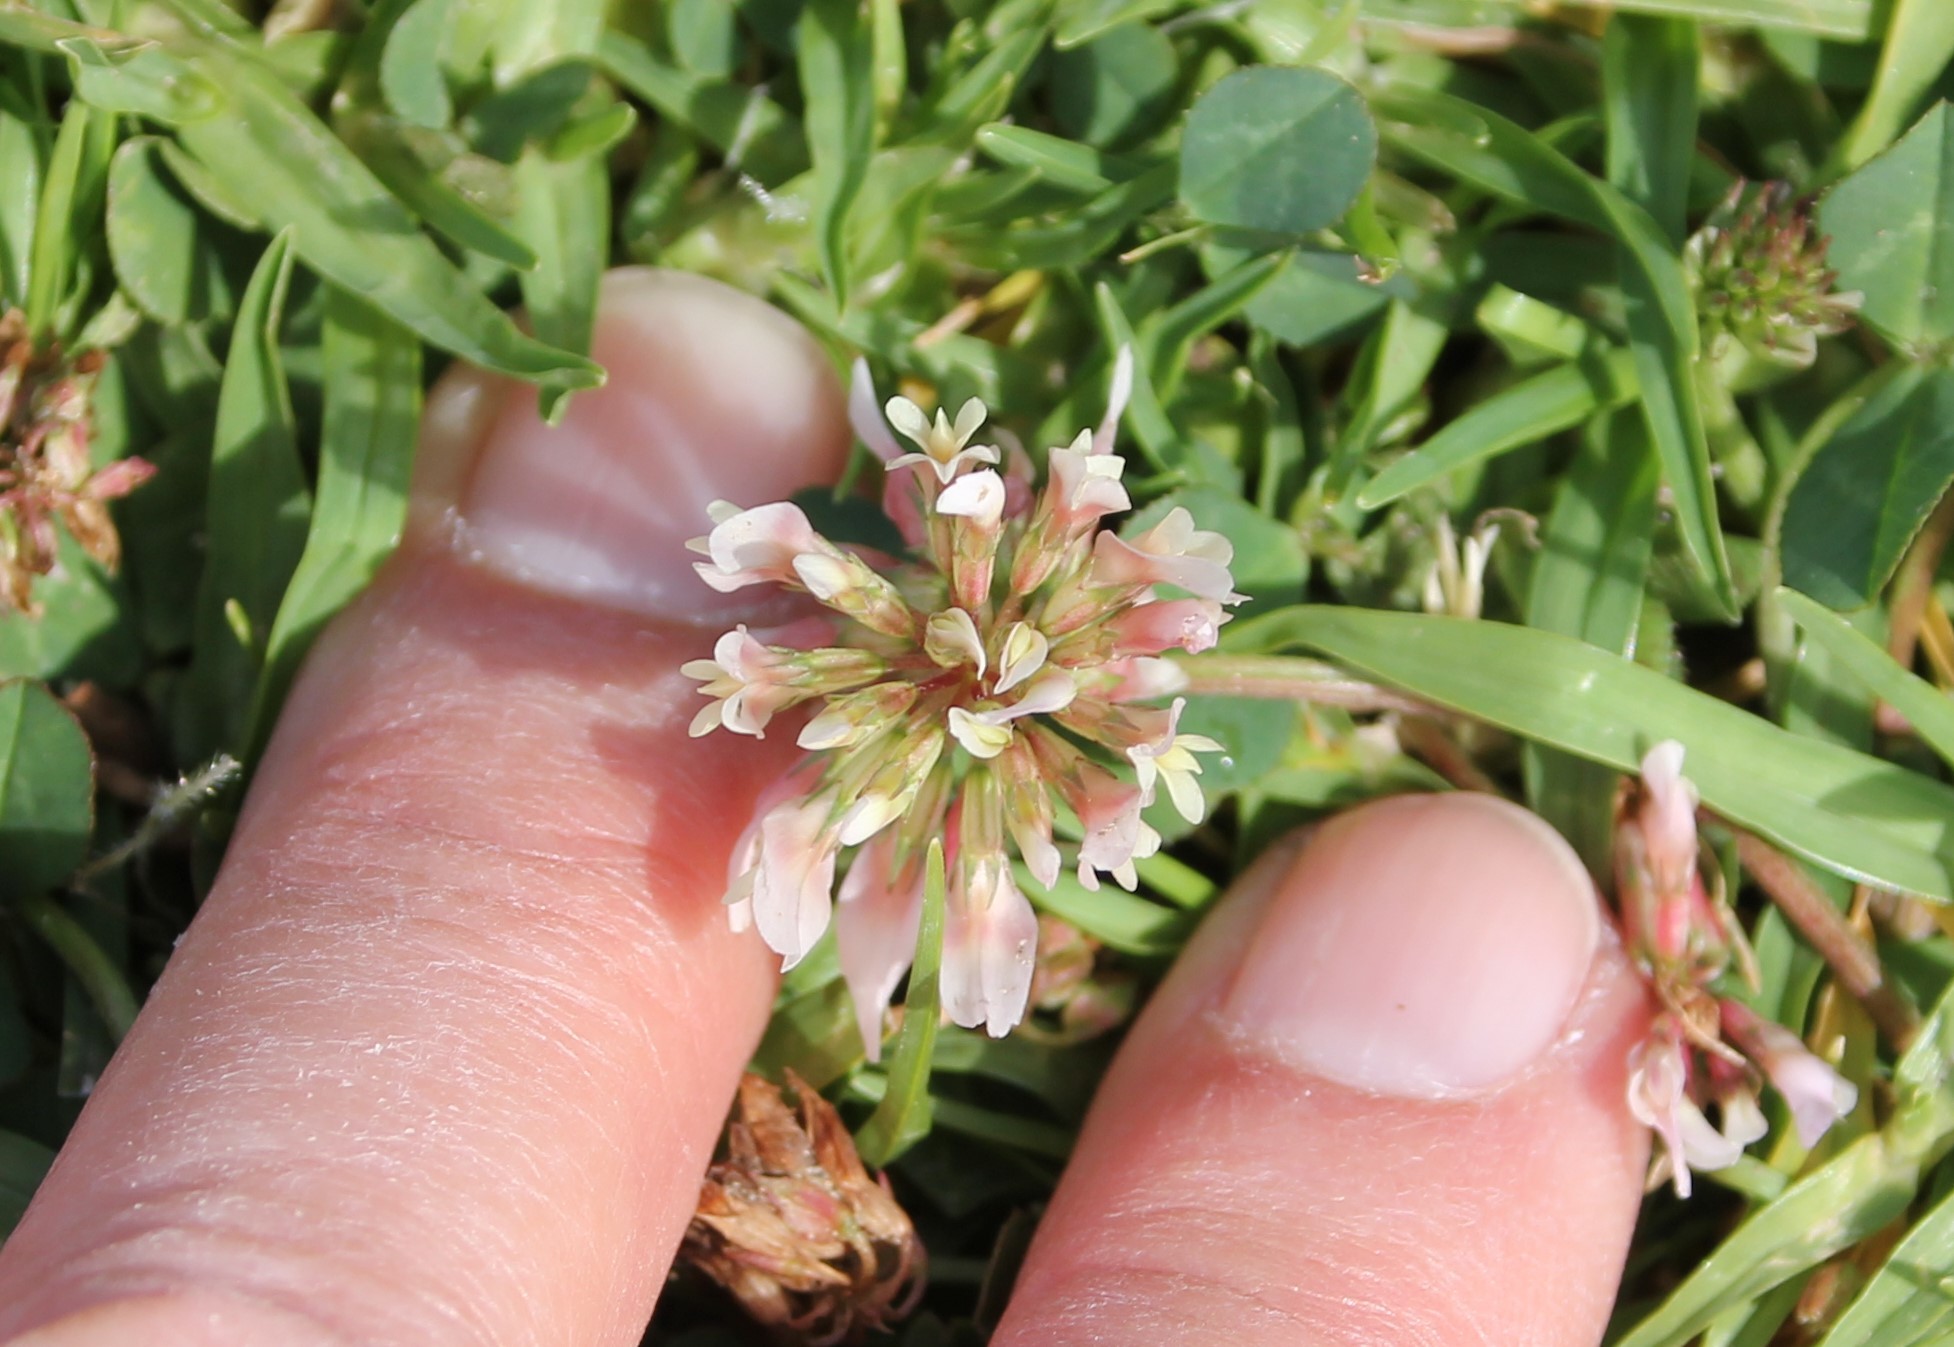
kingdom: Plantae
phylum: Tracheophyta
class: Magnoliopsida
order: Fabales
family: Fabaceae
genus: Trifolium
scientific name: Trifolium repens
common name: White clover
